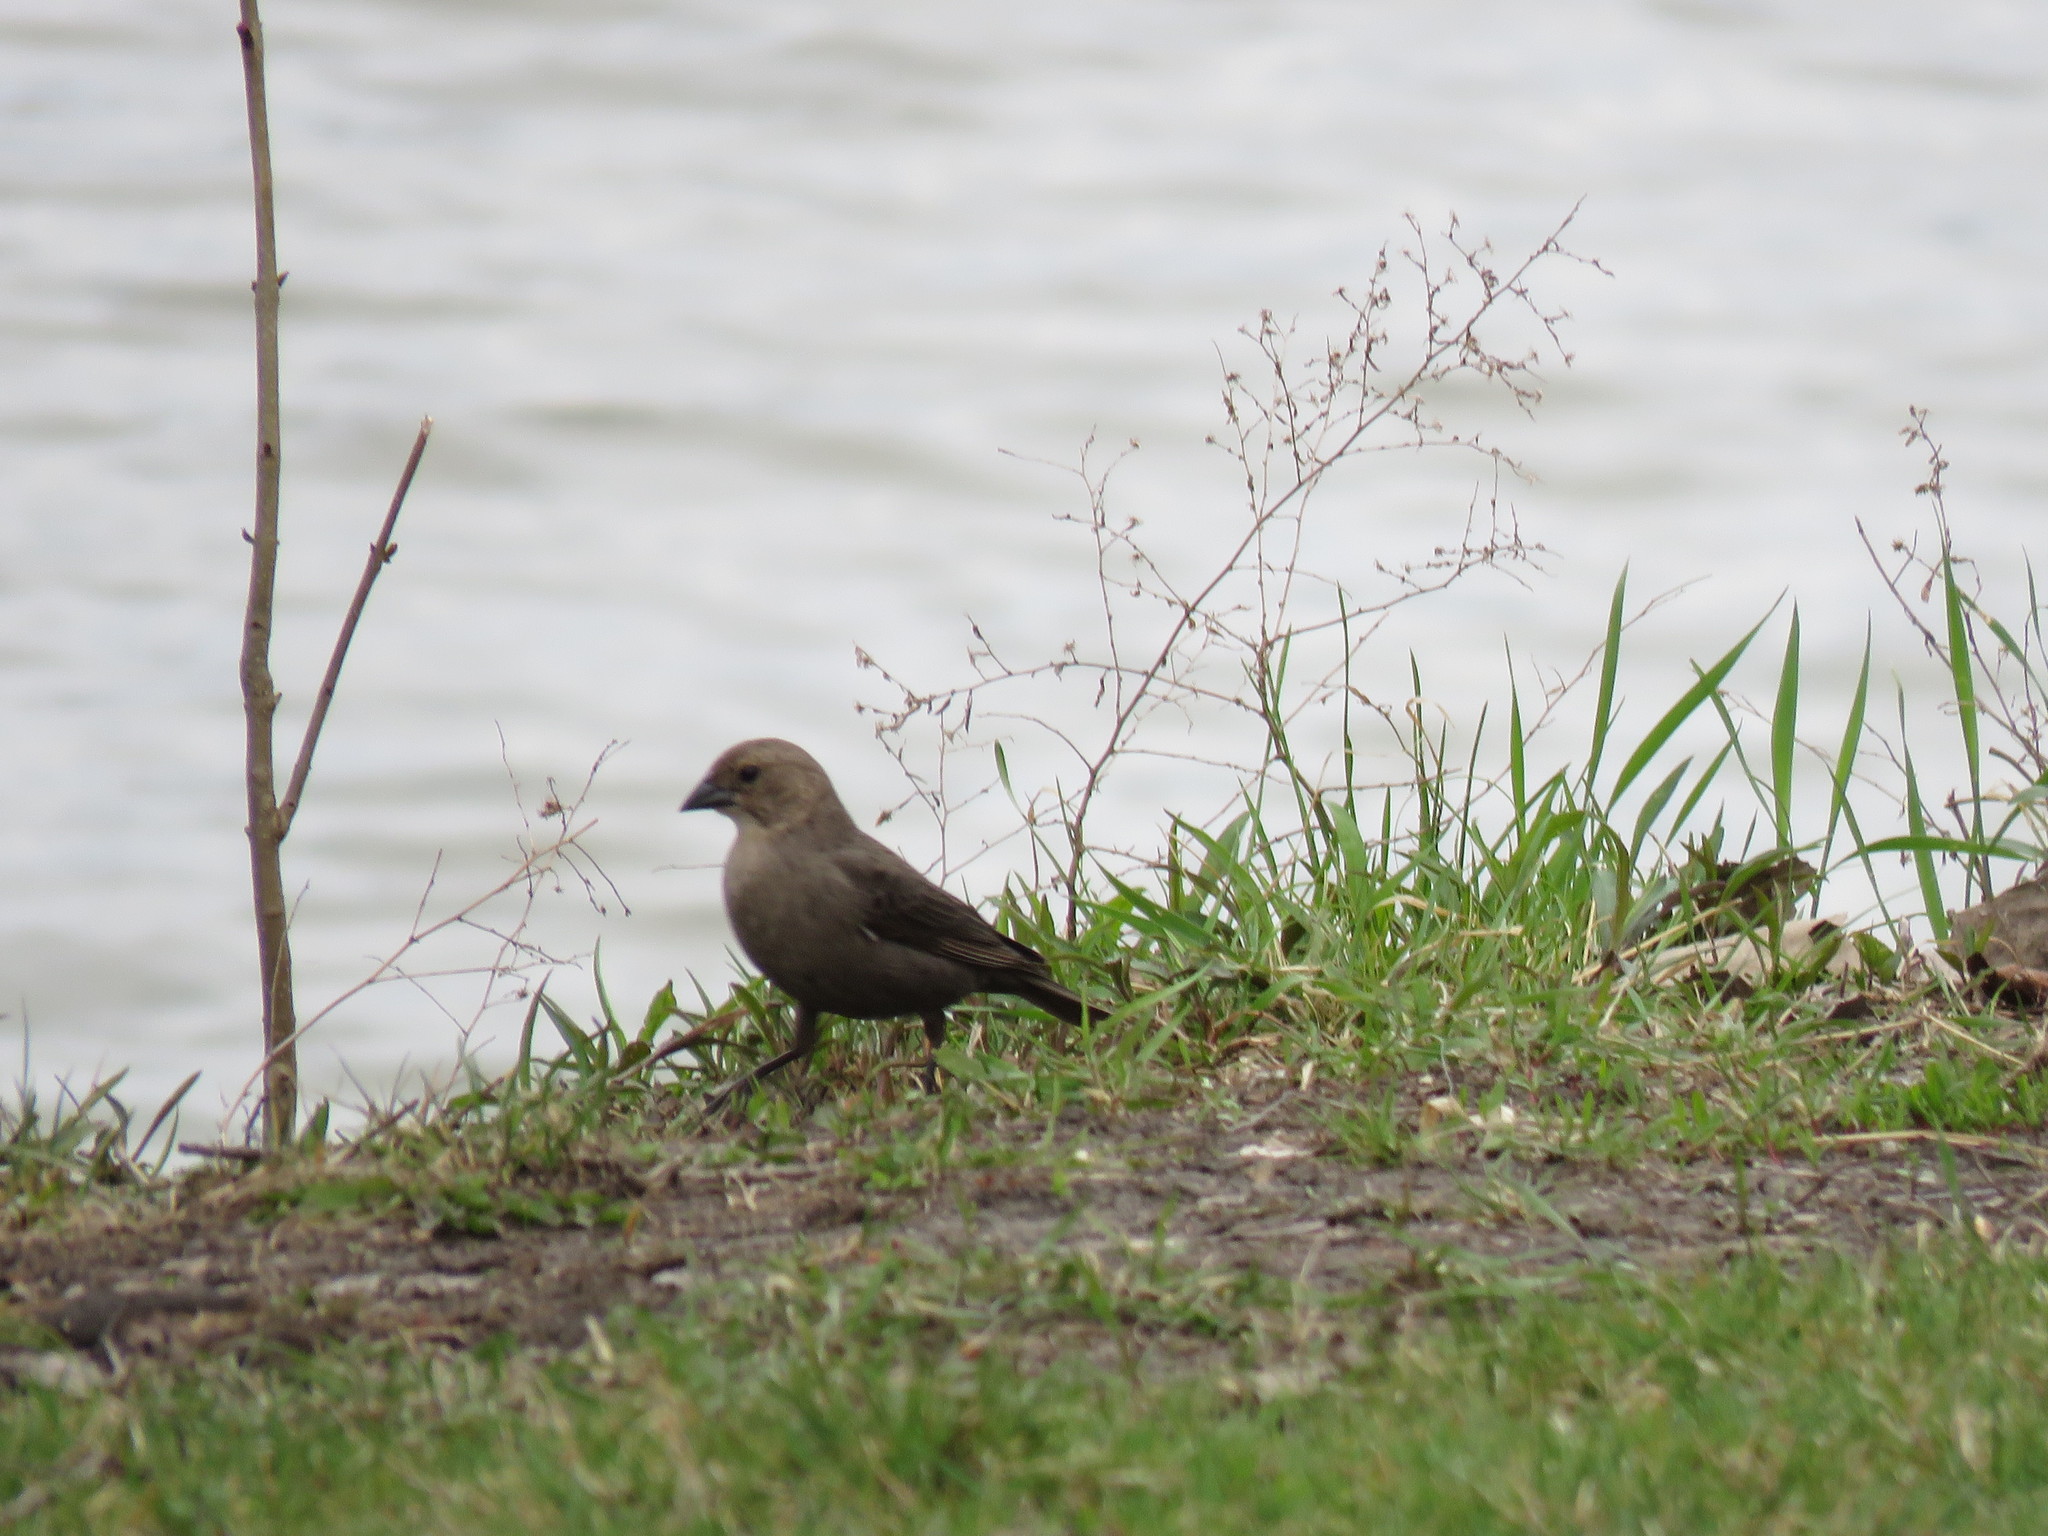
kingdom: Animalia
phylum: Chordata
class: Aves
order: Passeriformes
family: Icteridae
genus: Molothrus
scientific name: Molothrus ater
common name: Brown-headed cowbird
